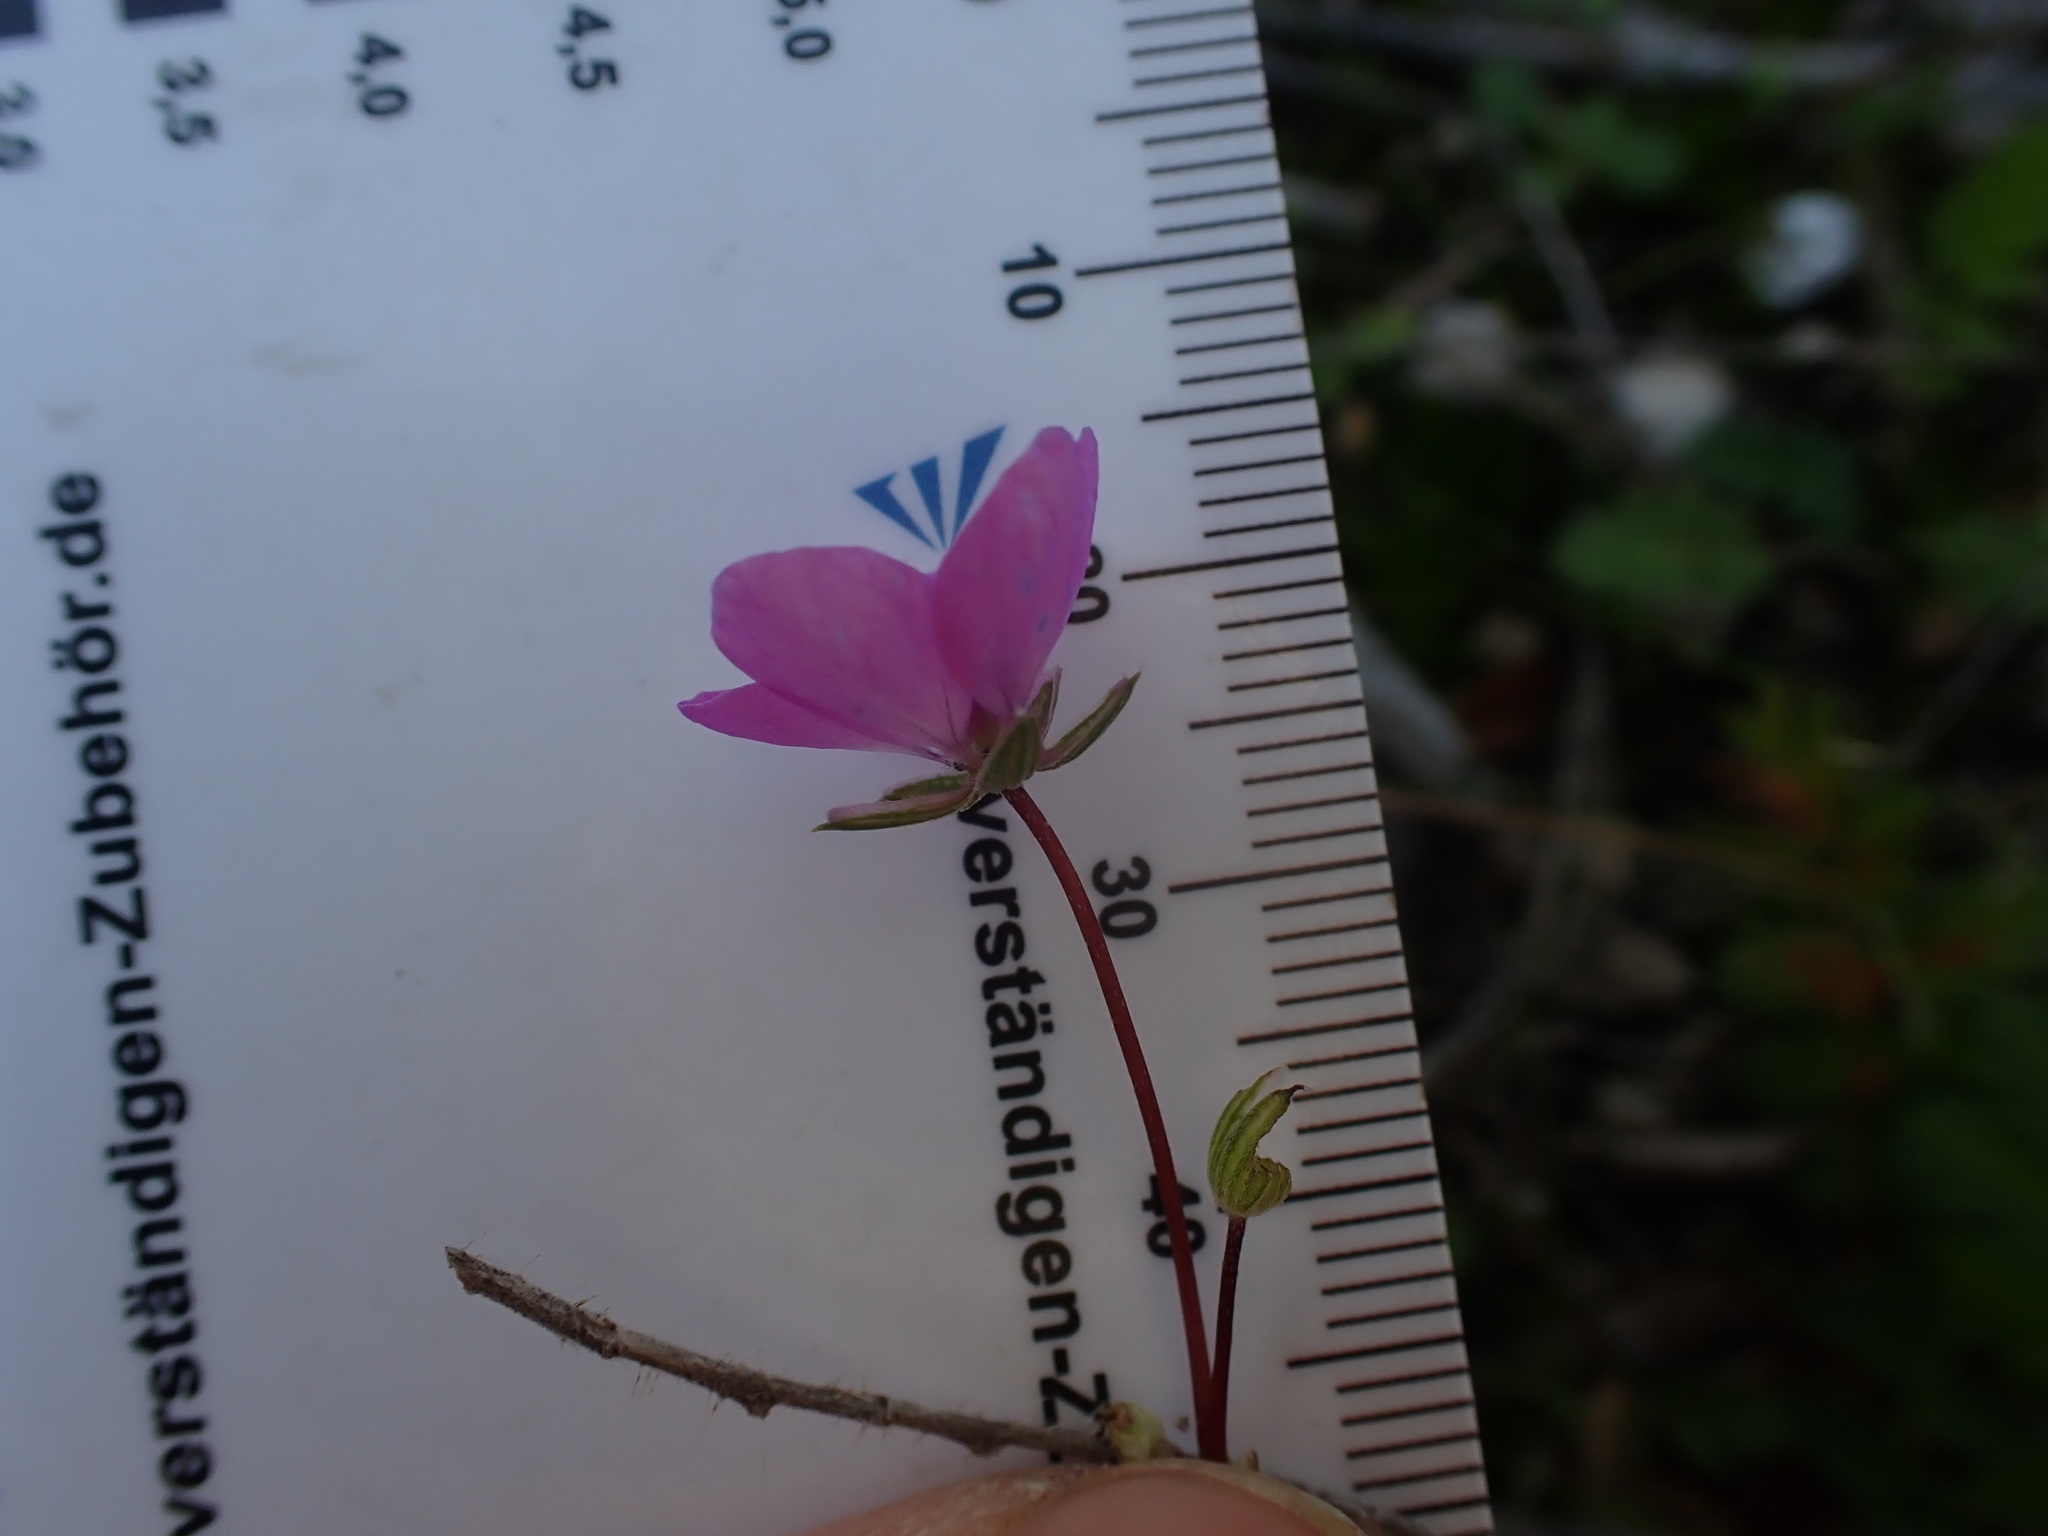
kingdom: Plantae
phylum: Tracheophyta
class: Magnoliopsida
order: Geraniales
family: Geraniaceae
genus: Erodium
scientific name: Erodium acaule
